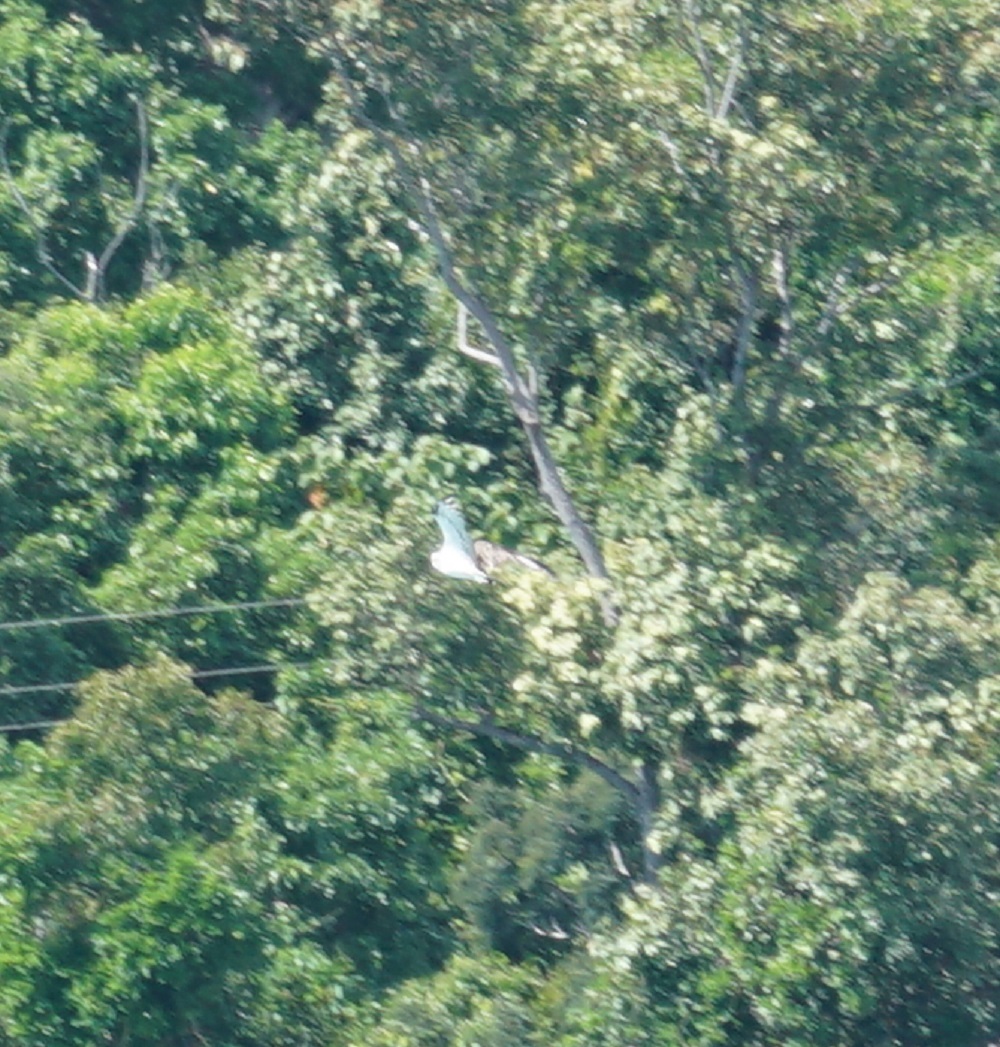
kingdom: Animalia
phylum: Chordata
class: Aves
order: Accipitriformes
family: Pandionidae
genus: Pandion
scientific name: Pandion haliaetus
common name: Osprey
